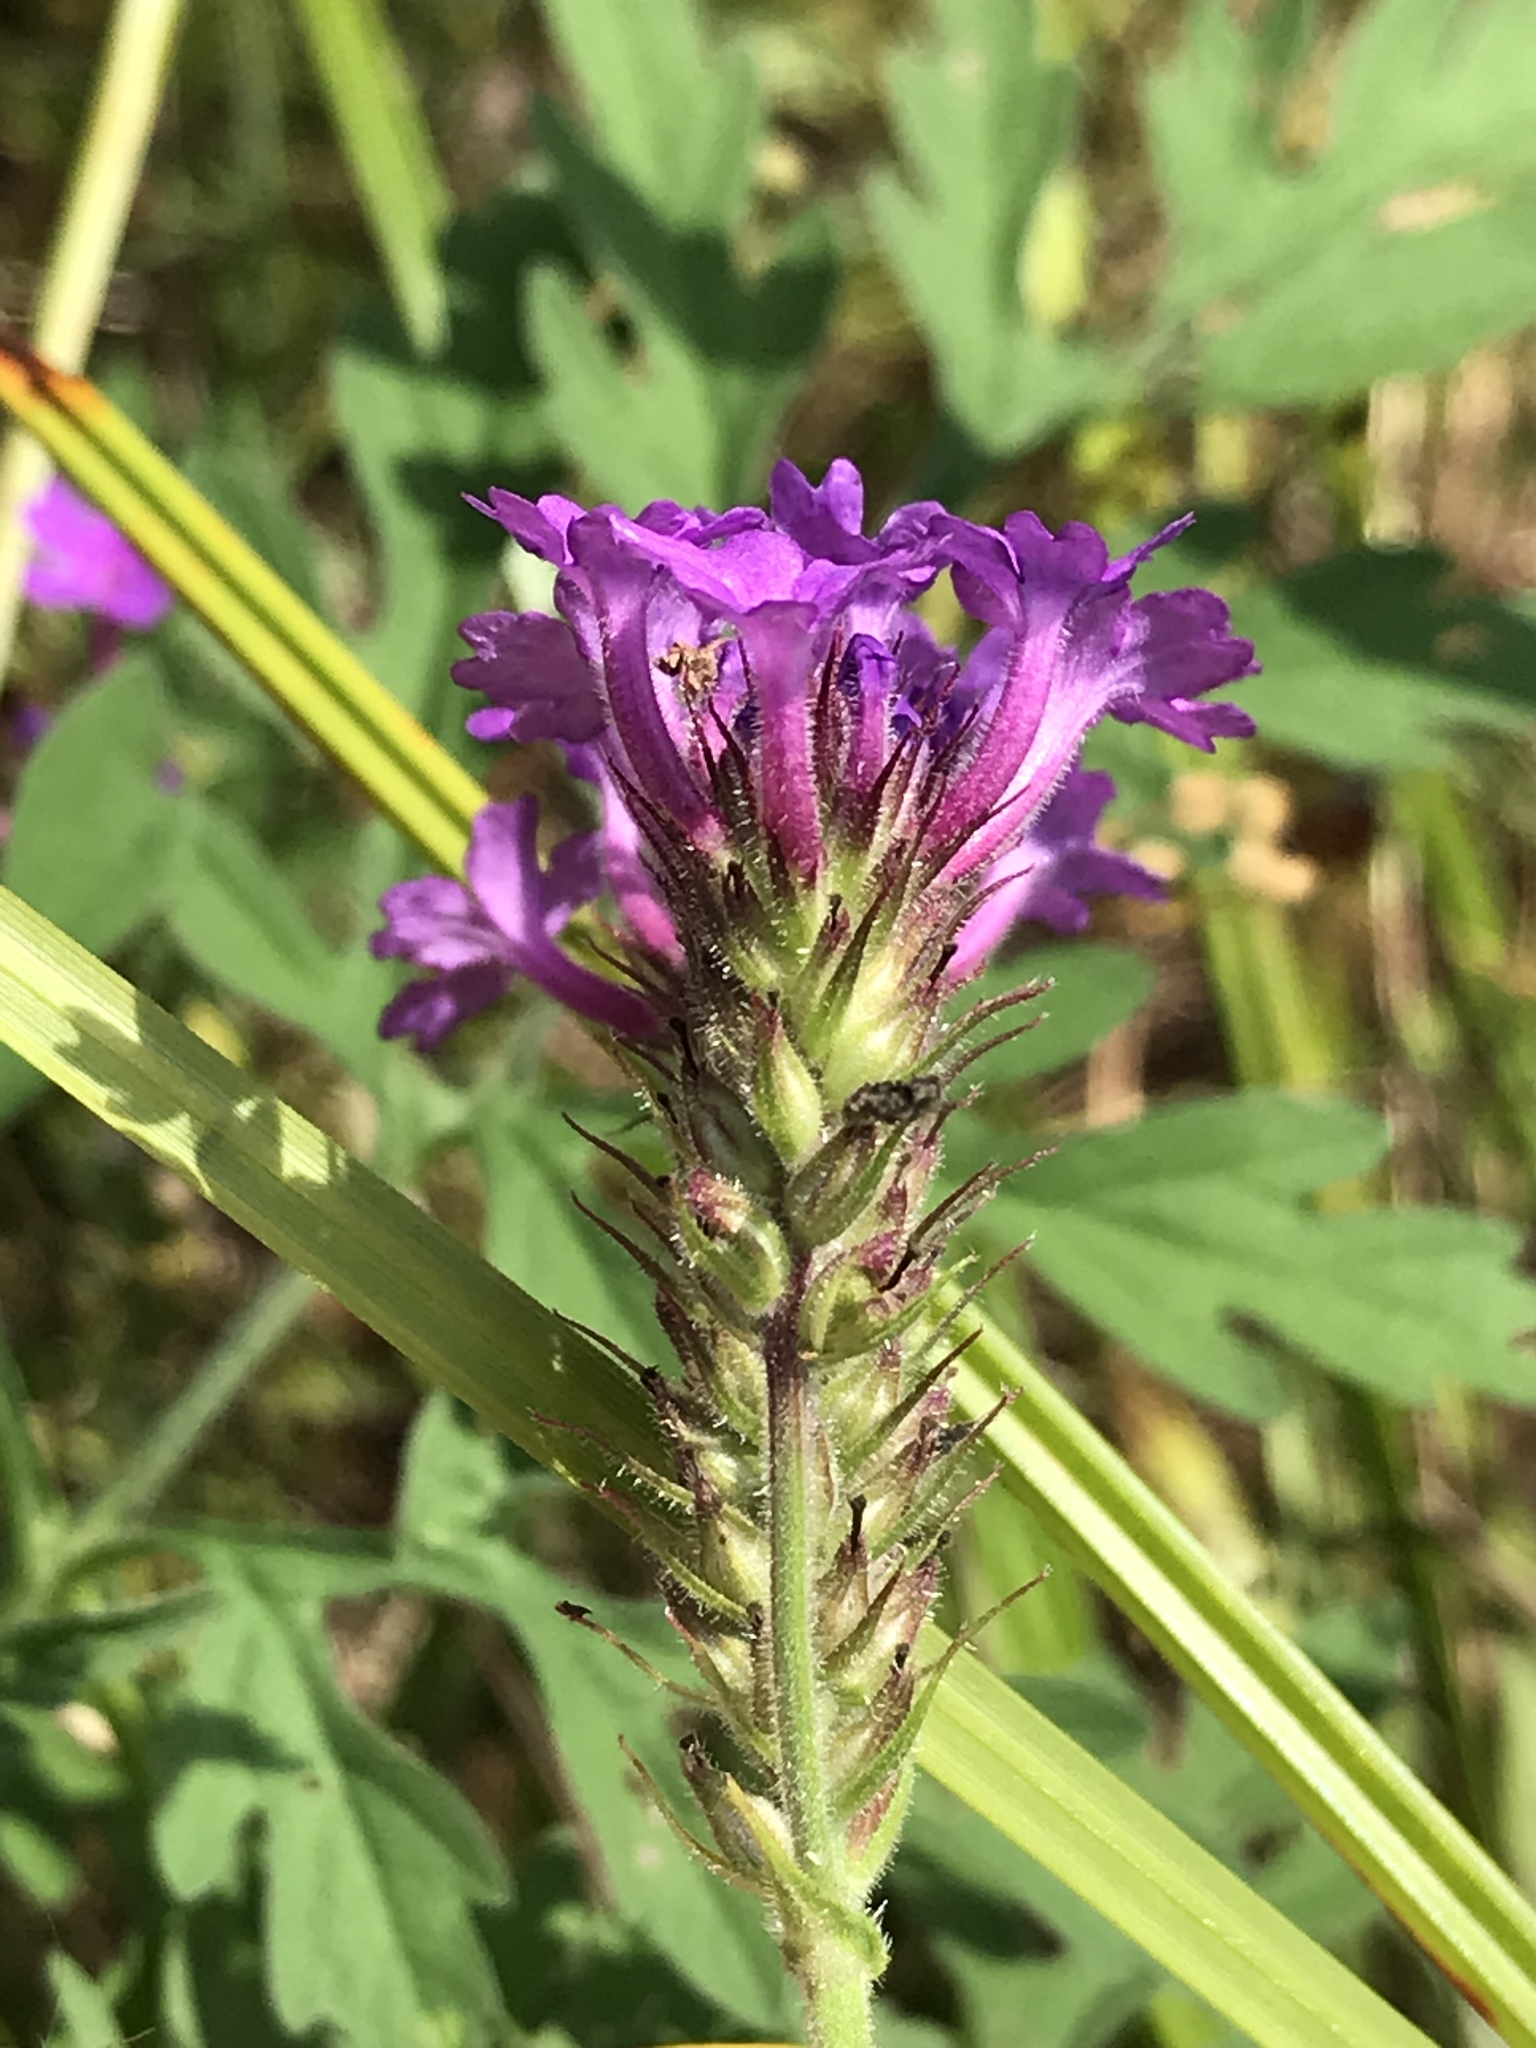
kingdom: Plantae
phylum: Tracheophyta
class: Magnoliopsida
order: Lamiales
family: Verbenaceae
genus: Verbena
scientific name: Verbena rigida
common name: Slender vervain
